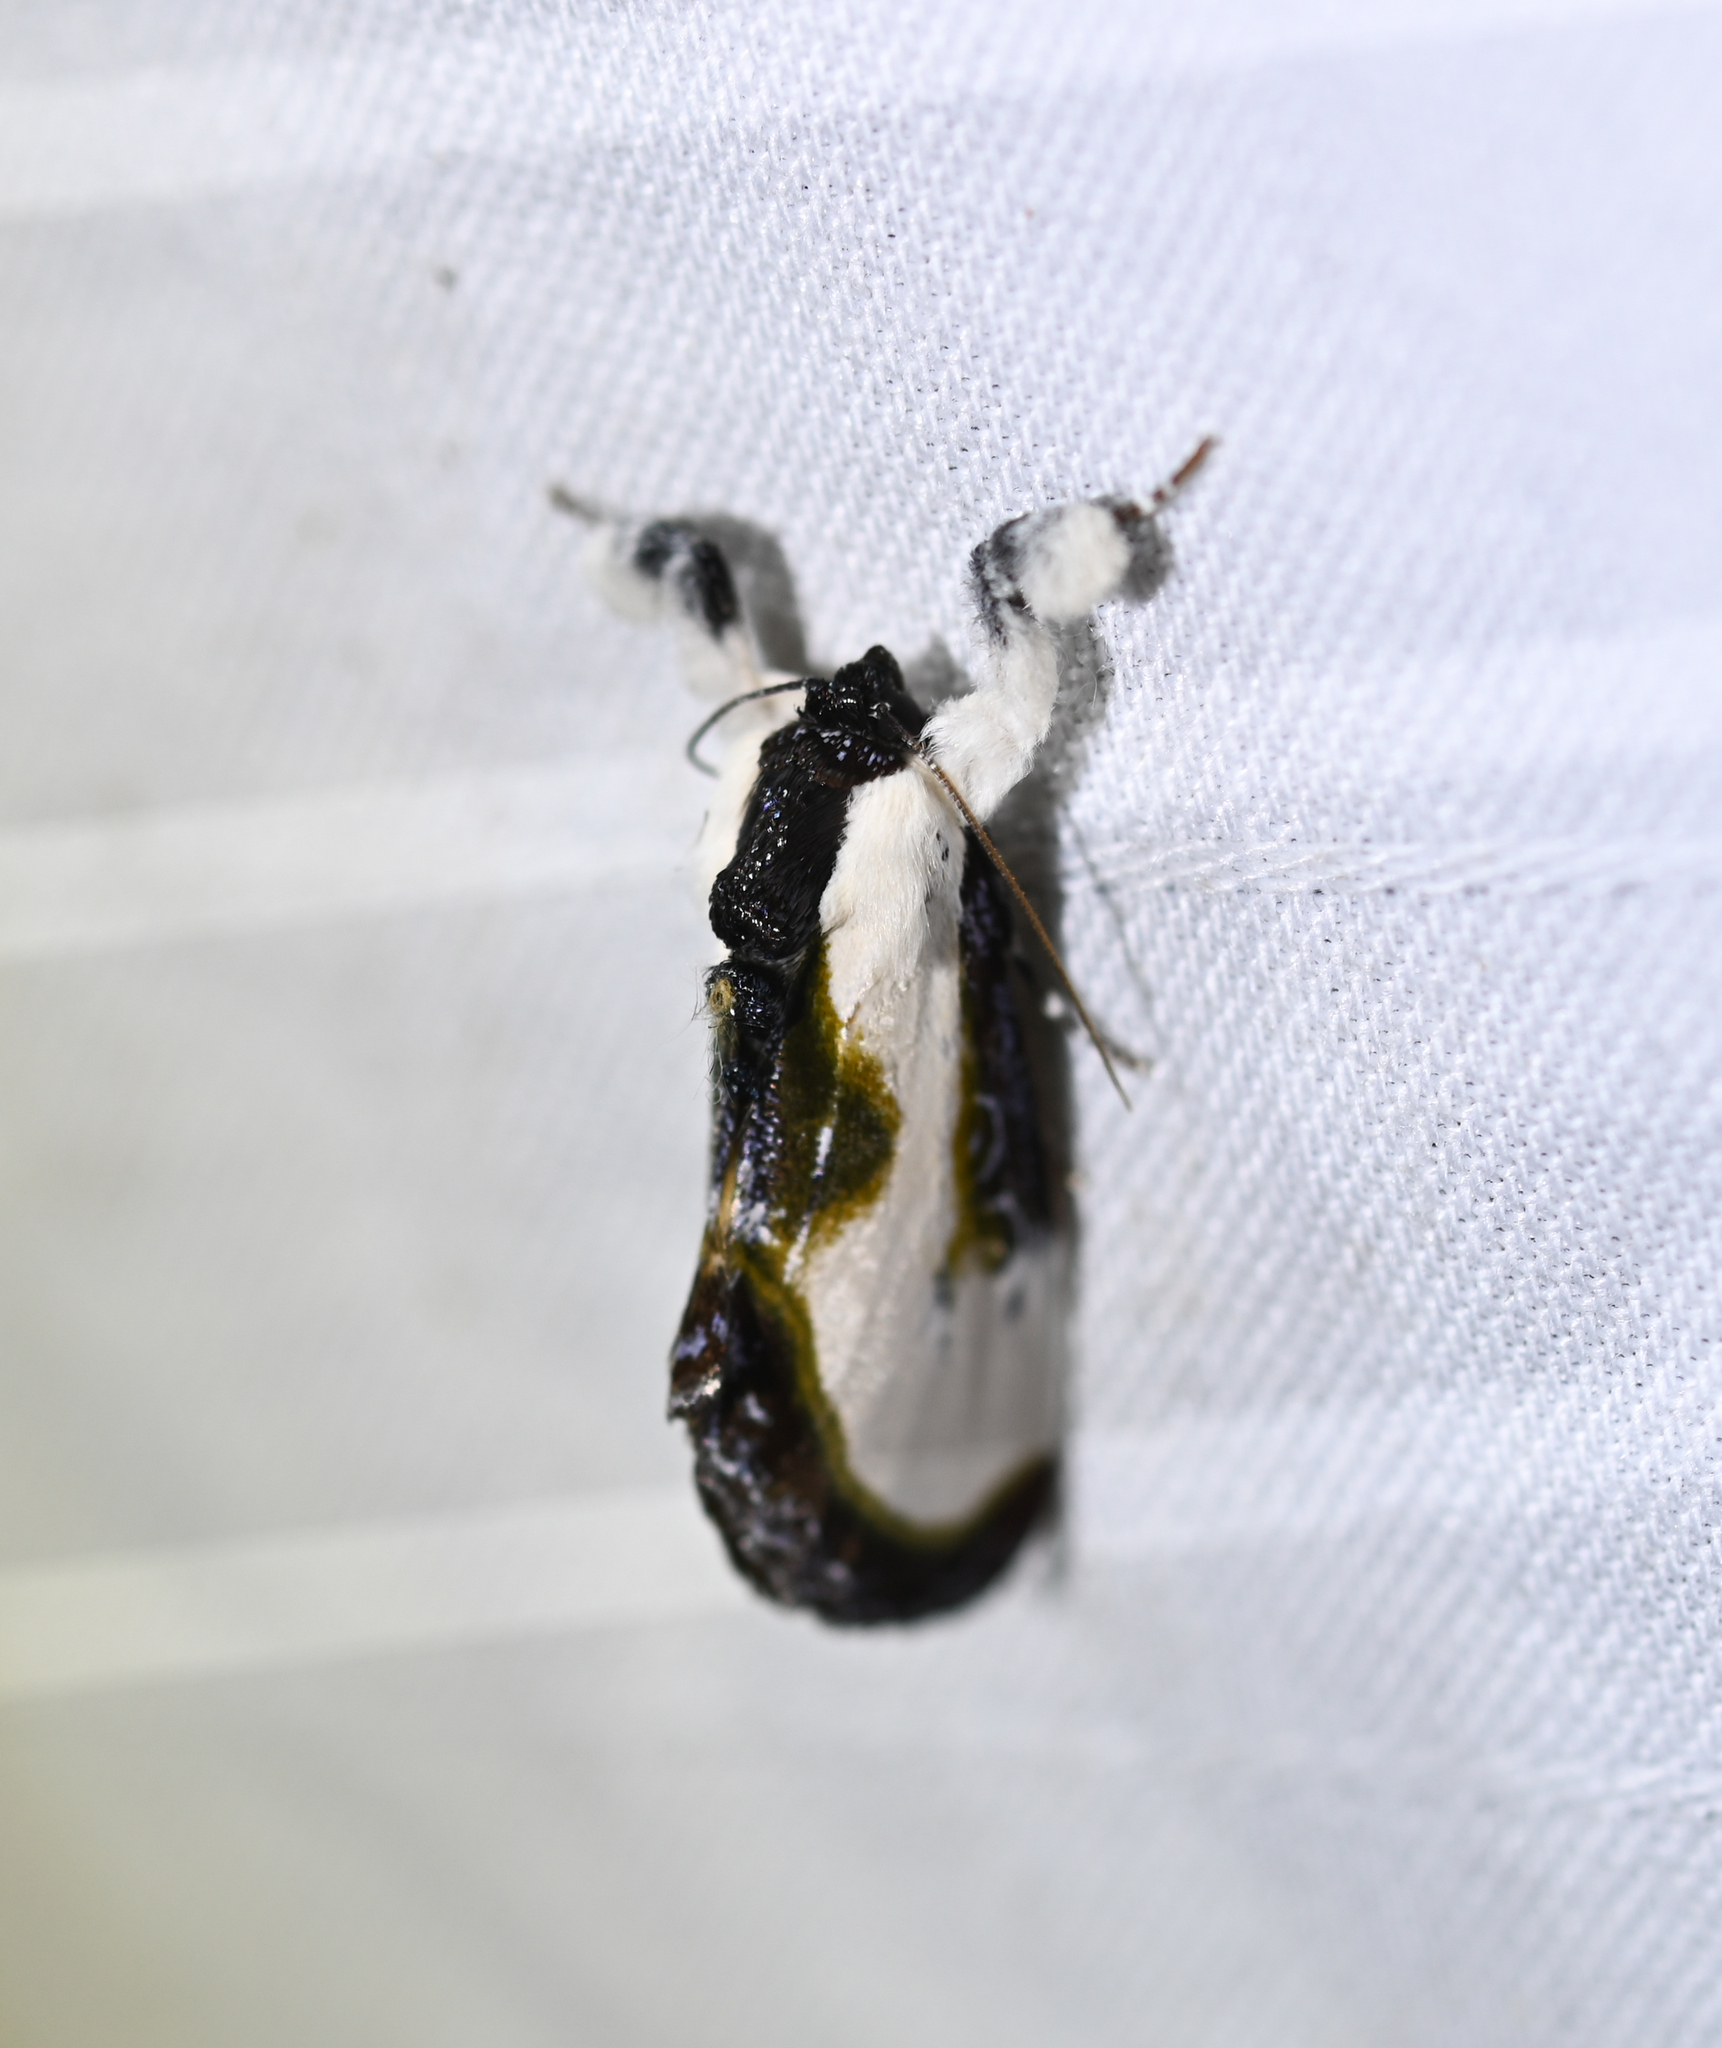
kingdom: Animalia
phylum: Arthropoda
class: Insecta
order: Lepidoptera
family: Noctuidae
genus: Eudryas
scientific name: Eudryas grata
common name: Beautiful wood-nymph
